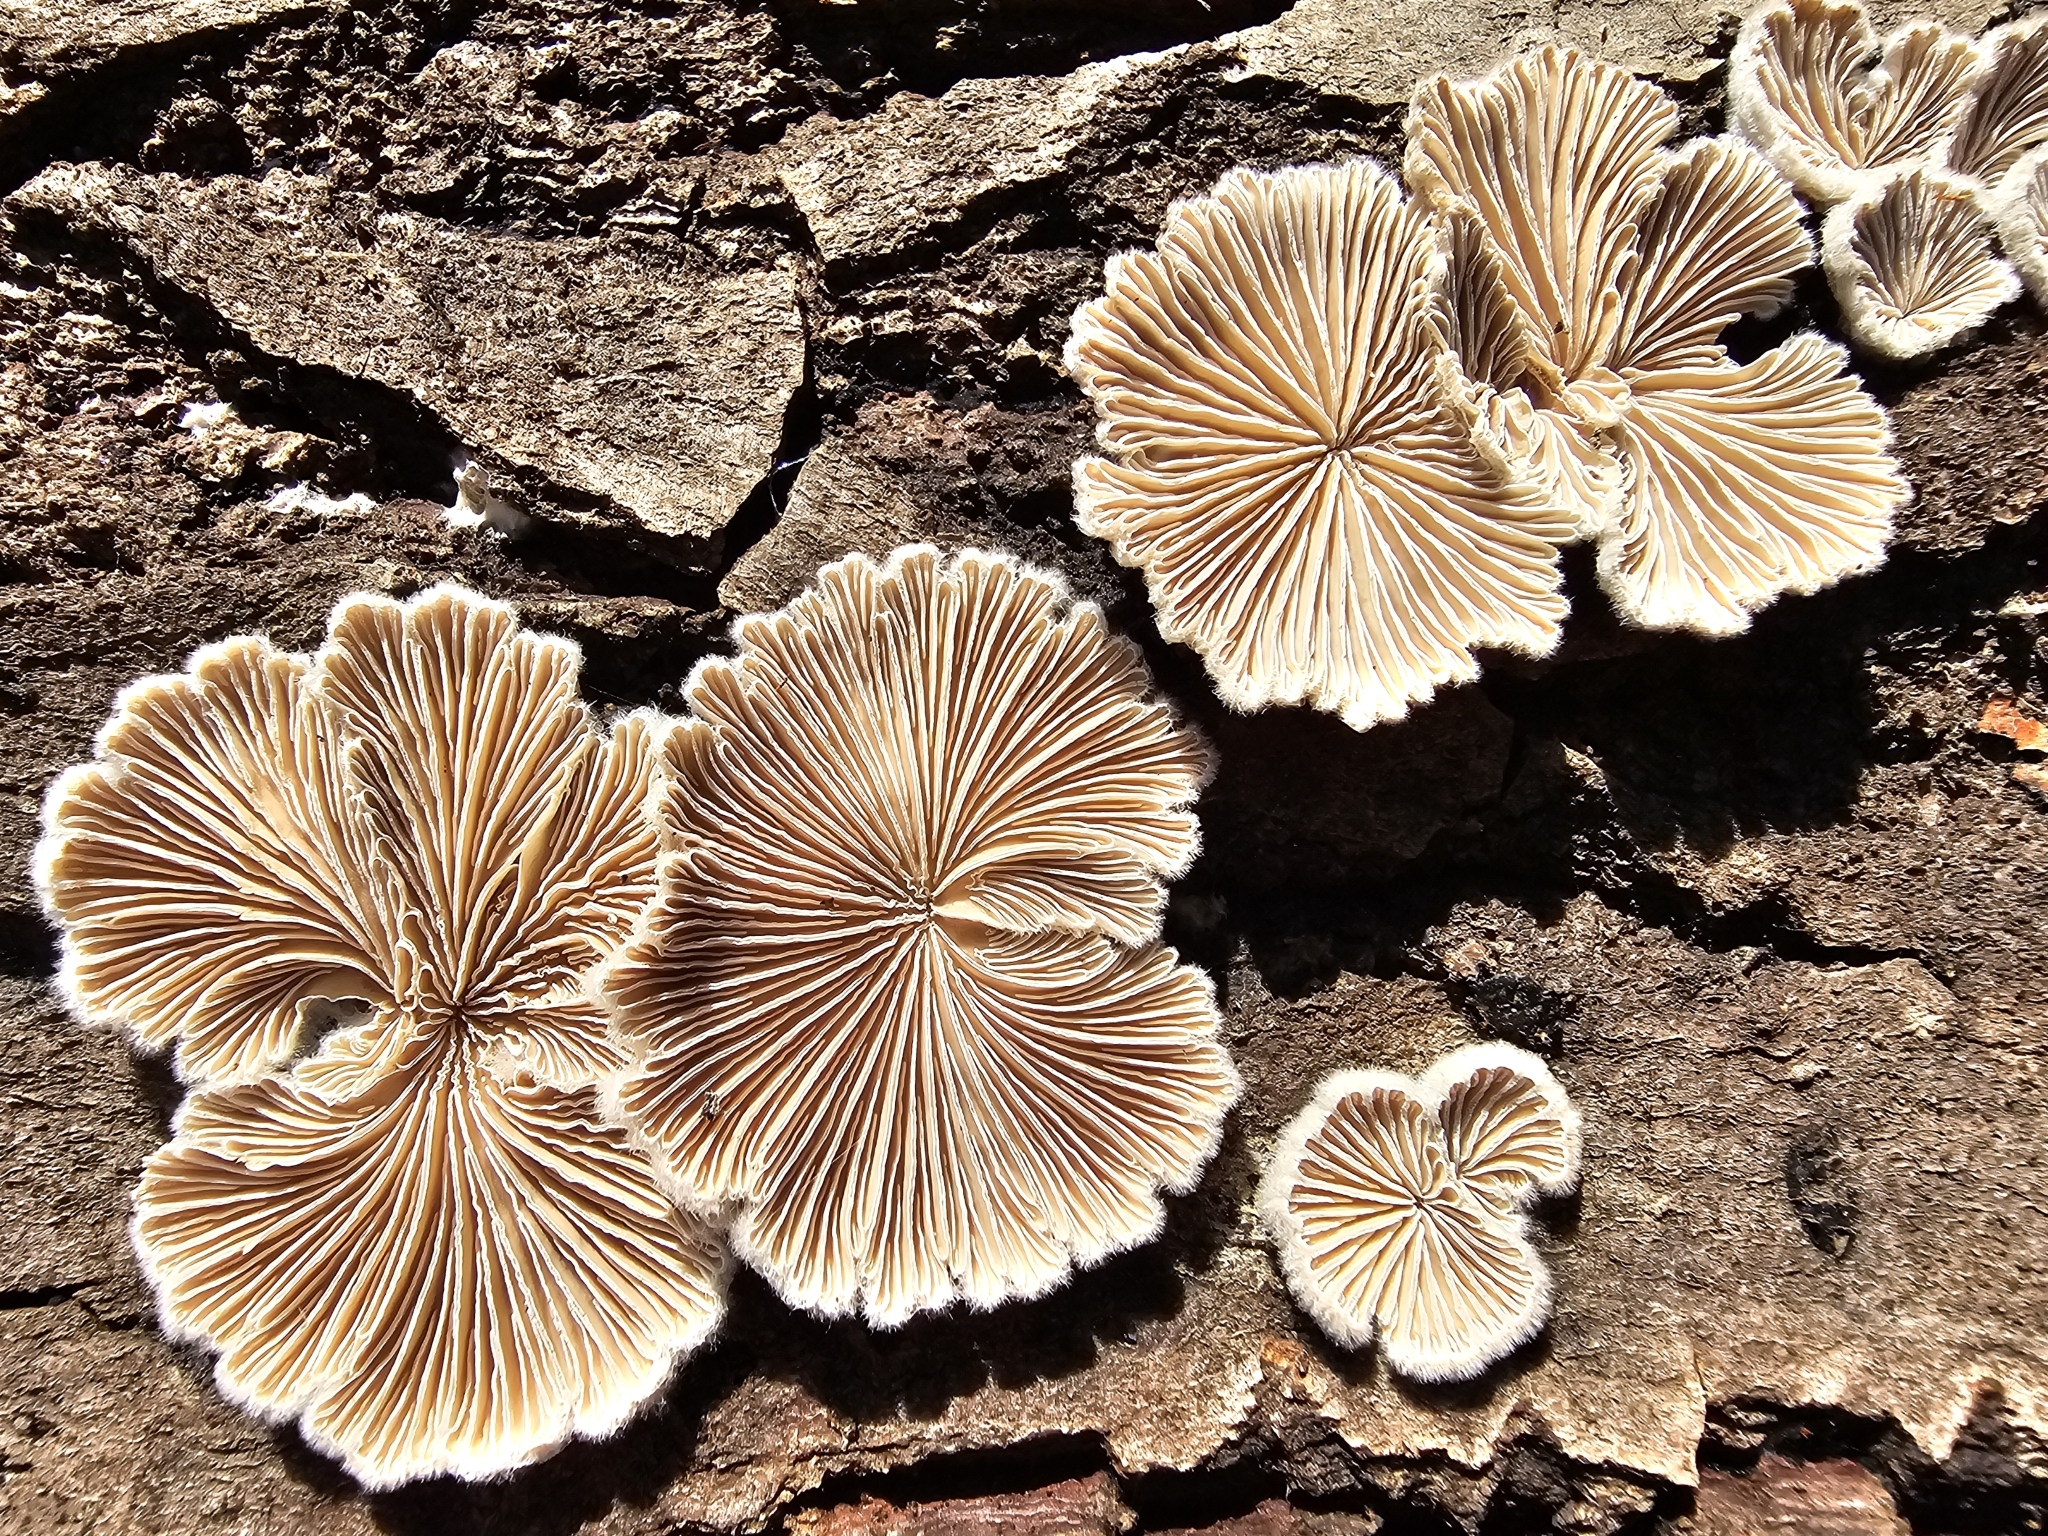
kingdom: Fungi
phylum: Basidiomycota
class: Agaricomycetes
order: Agaricales
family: Schizophyllaceae
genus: Schizophyllum
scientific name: Schizophyllum commune
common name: Common porecrust
